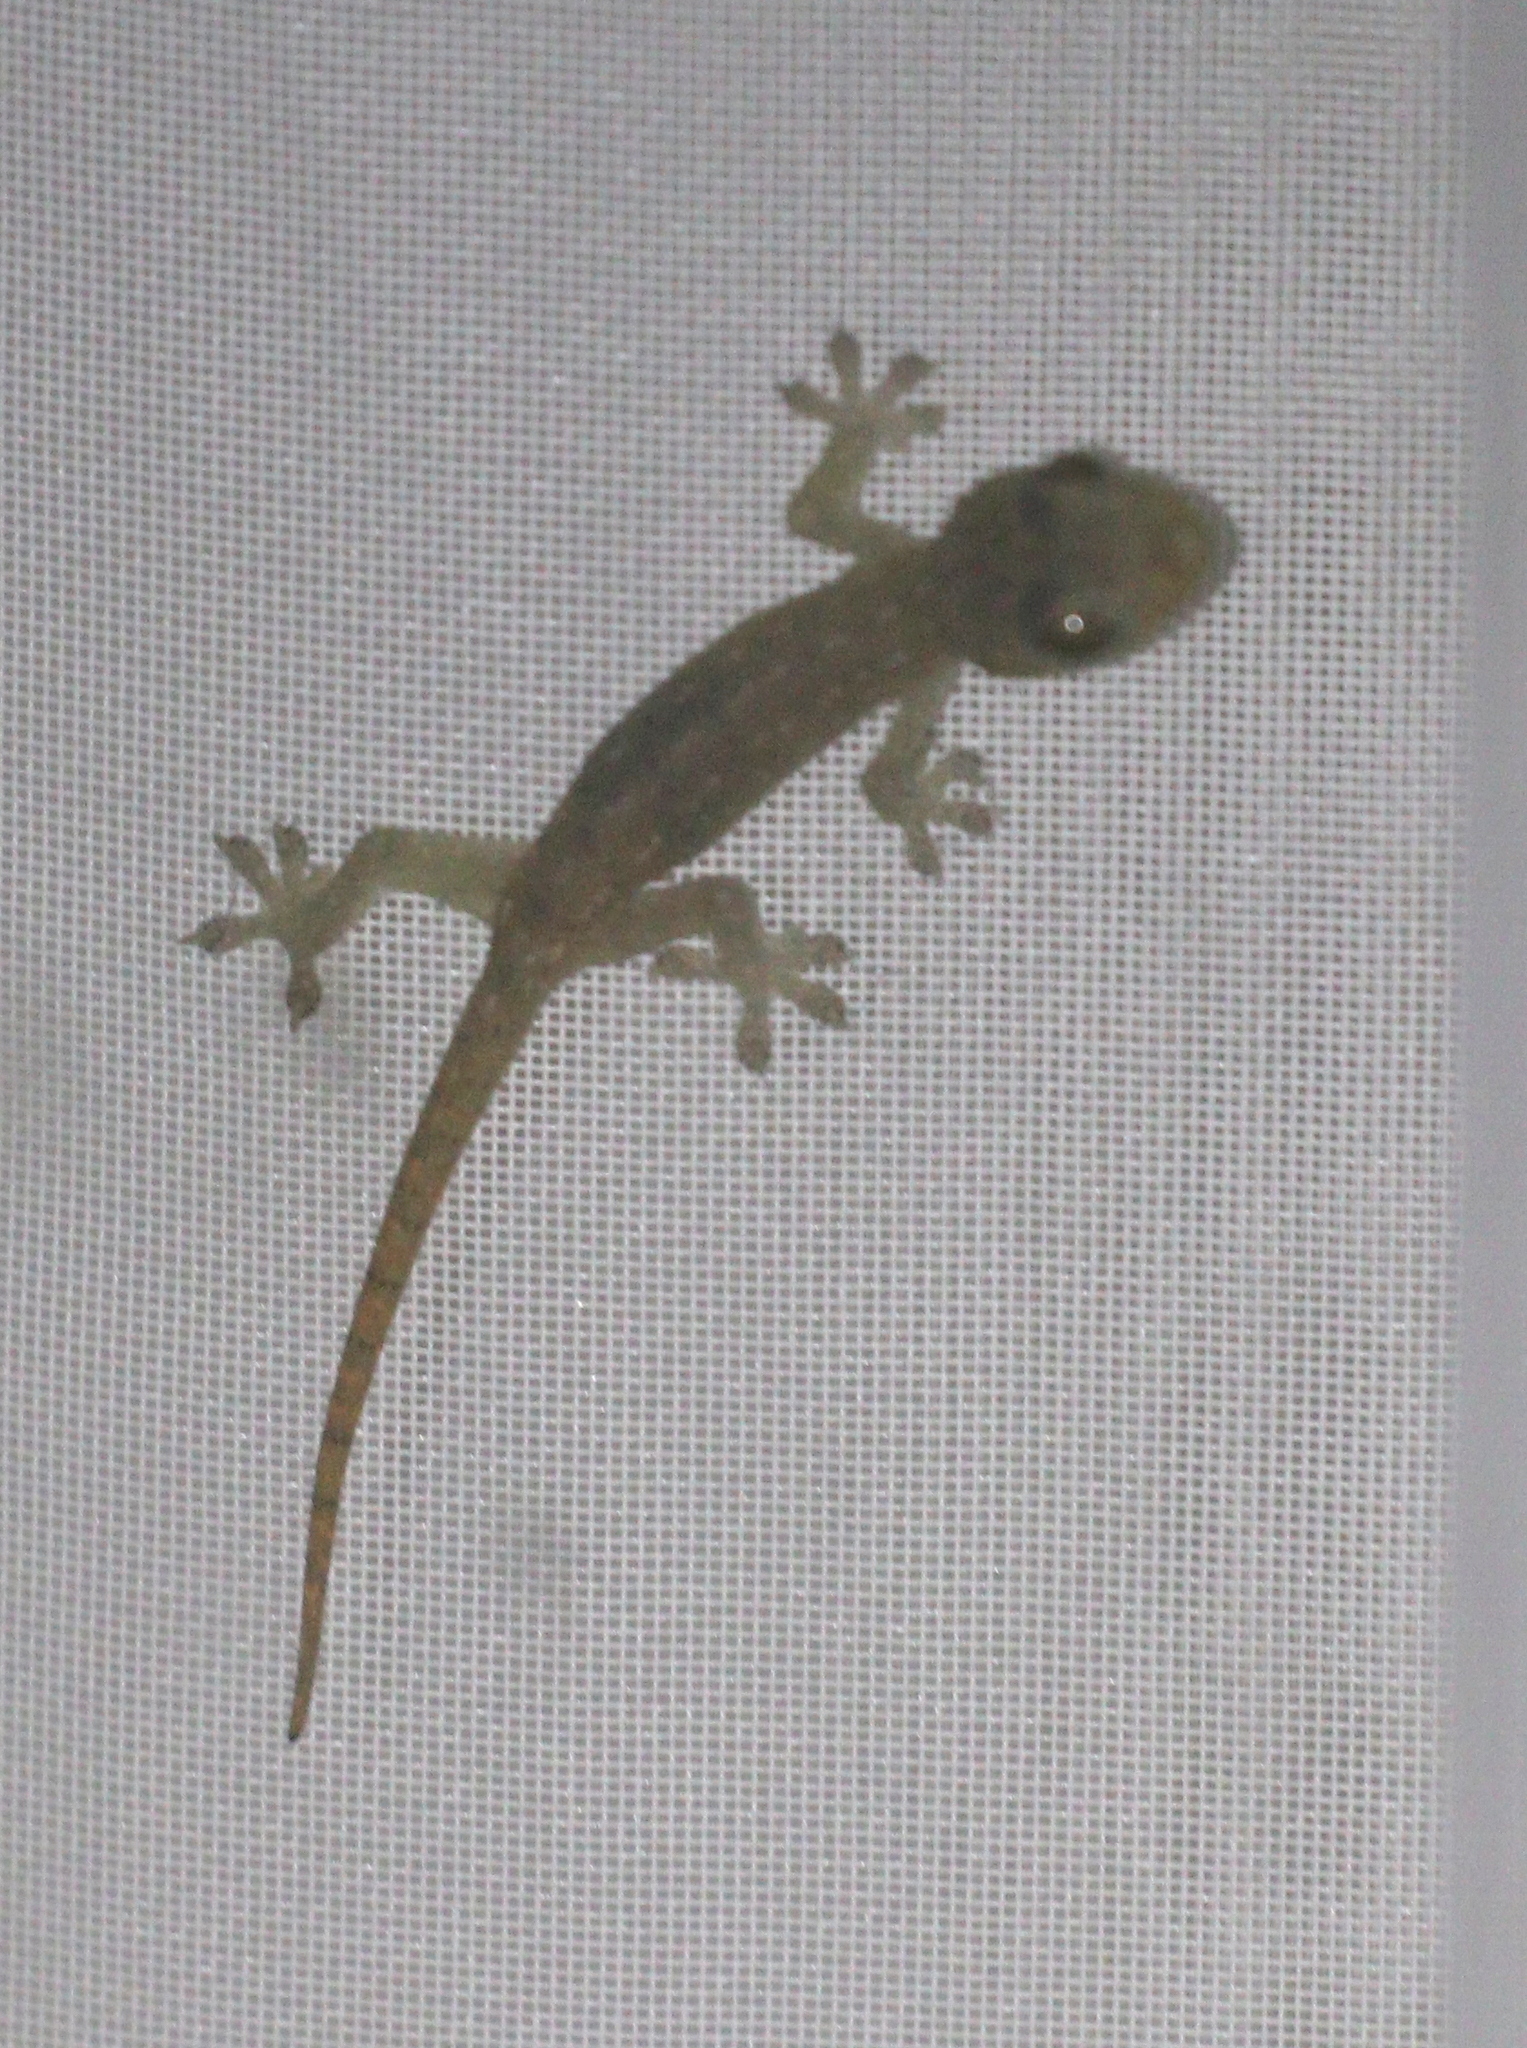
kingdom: Animalia
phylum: Chordata
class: Squamata
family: Gekkonidae
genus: Hemidactylus
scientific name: Hemidactylus frenatus
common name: Common house gecko
